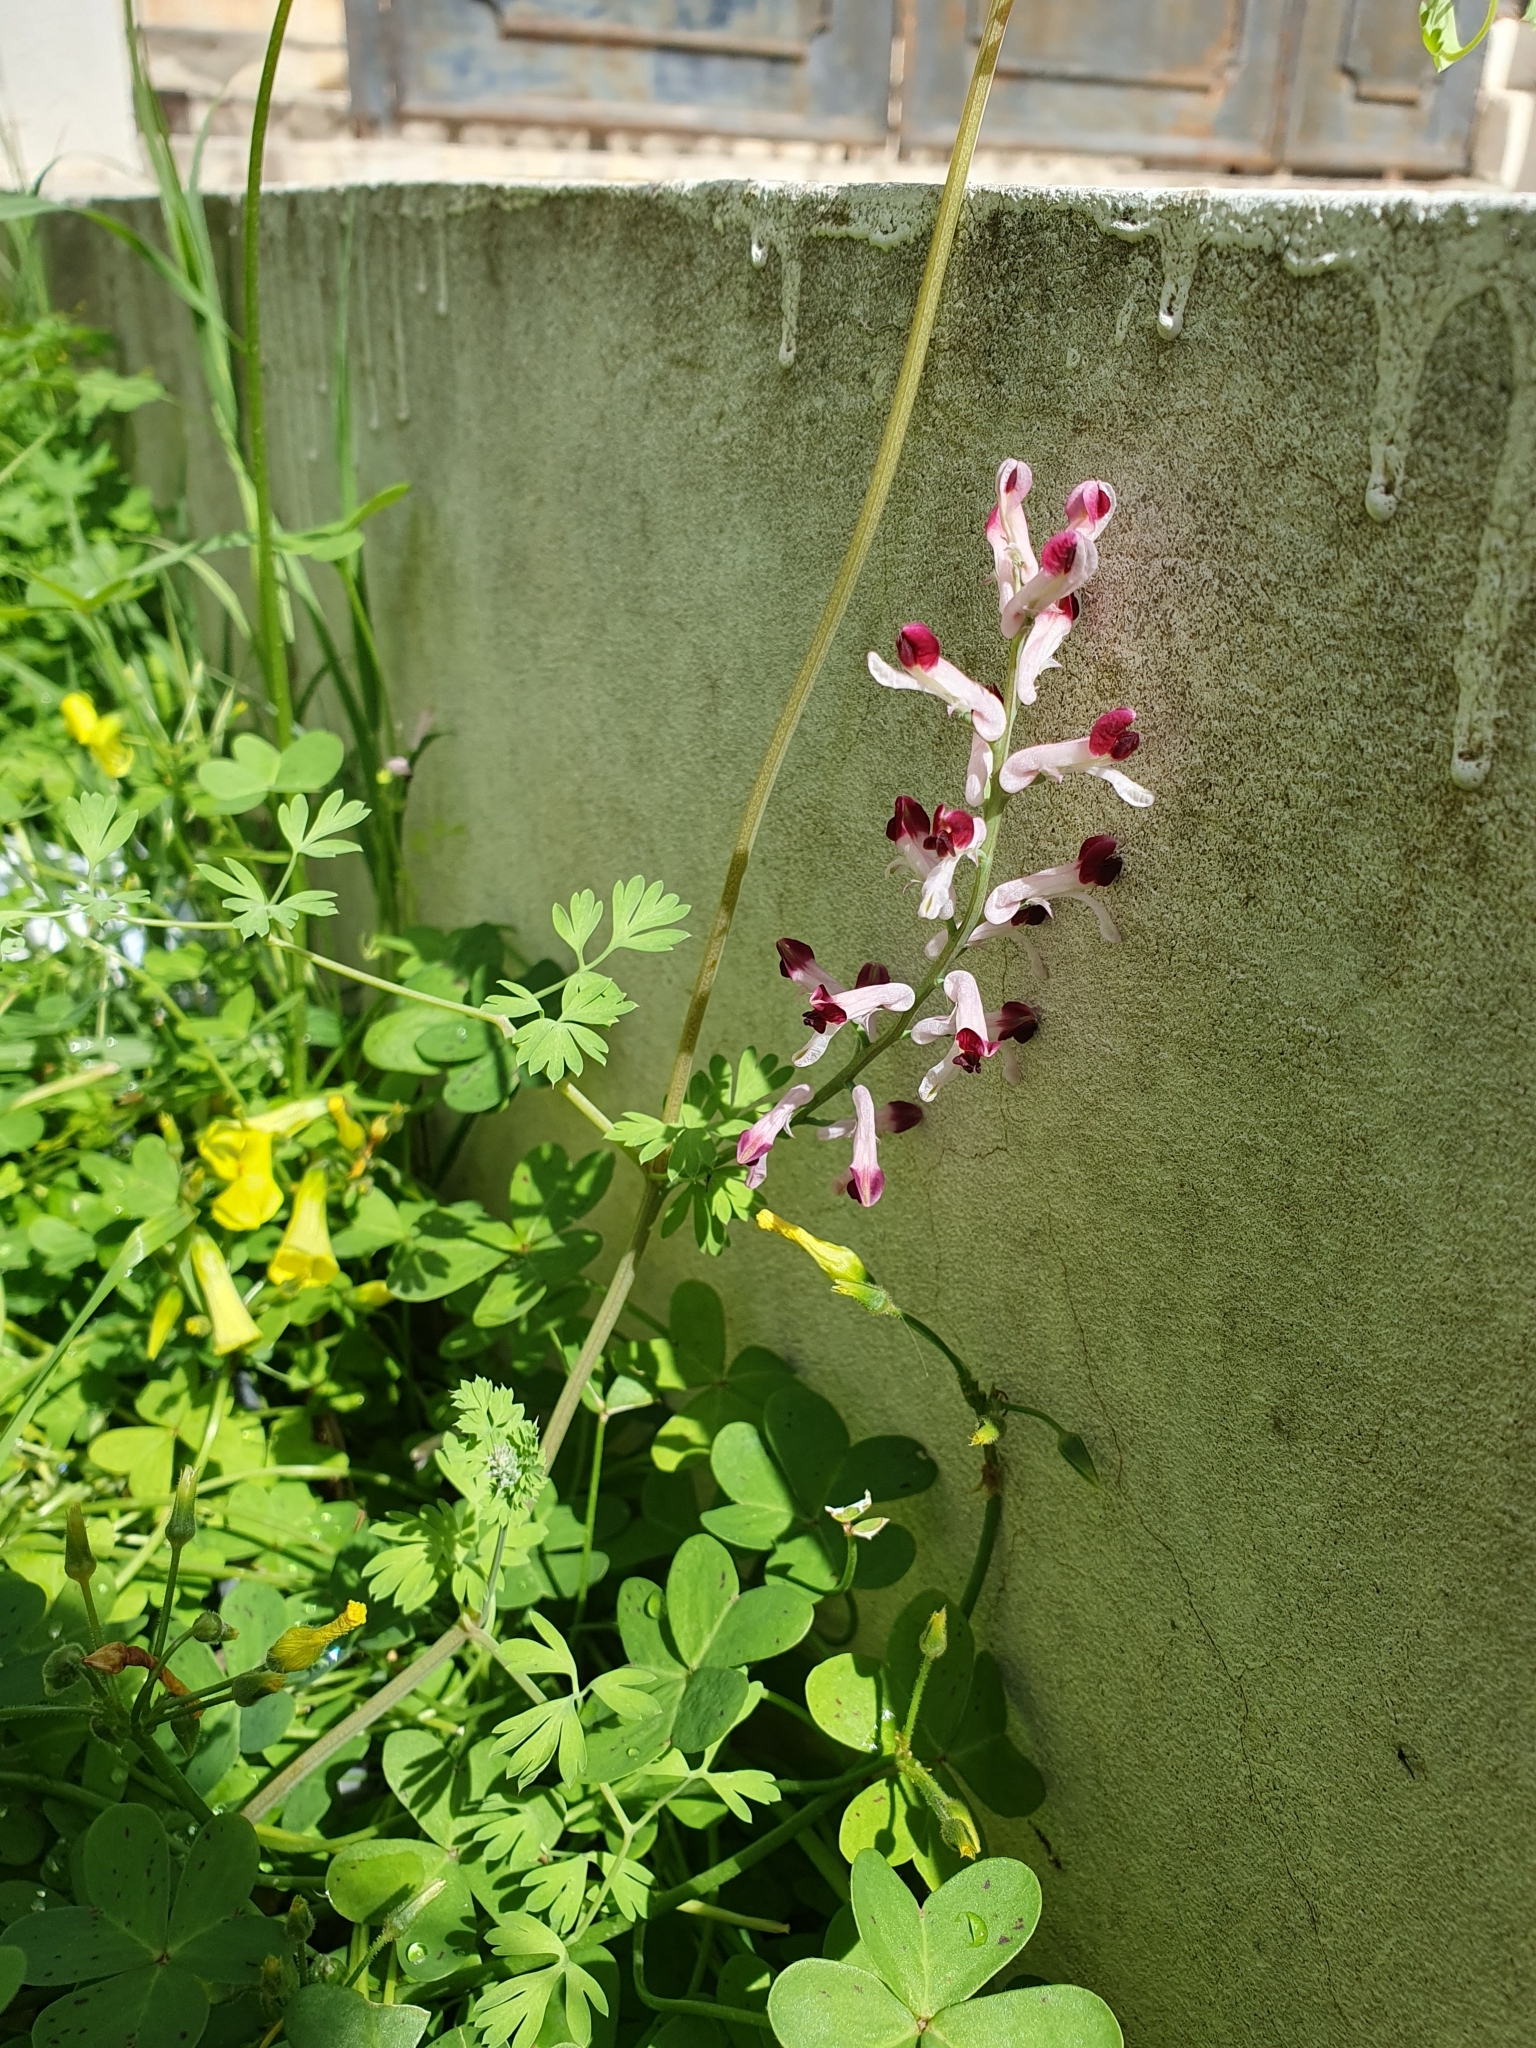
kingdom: Plantae
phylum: Tracheophyta
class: Magnoliopsida
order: Ranunculales
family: Papaveraceae
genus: Fumaria
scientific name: Fumaria barnolae
